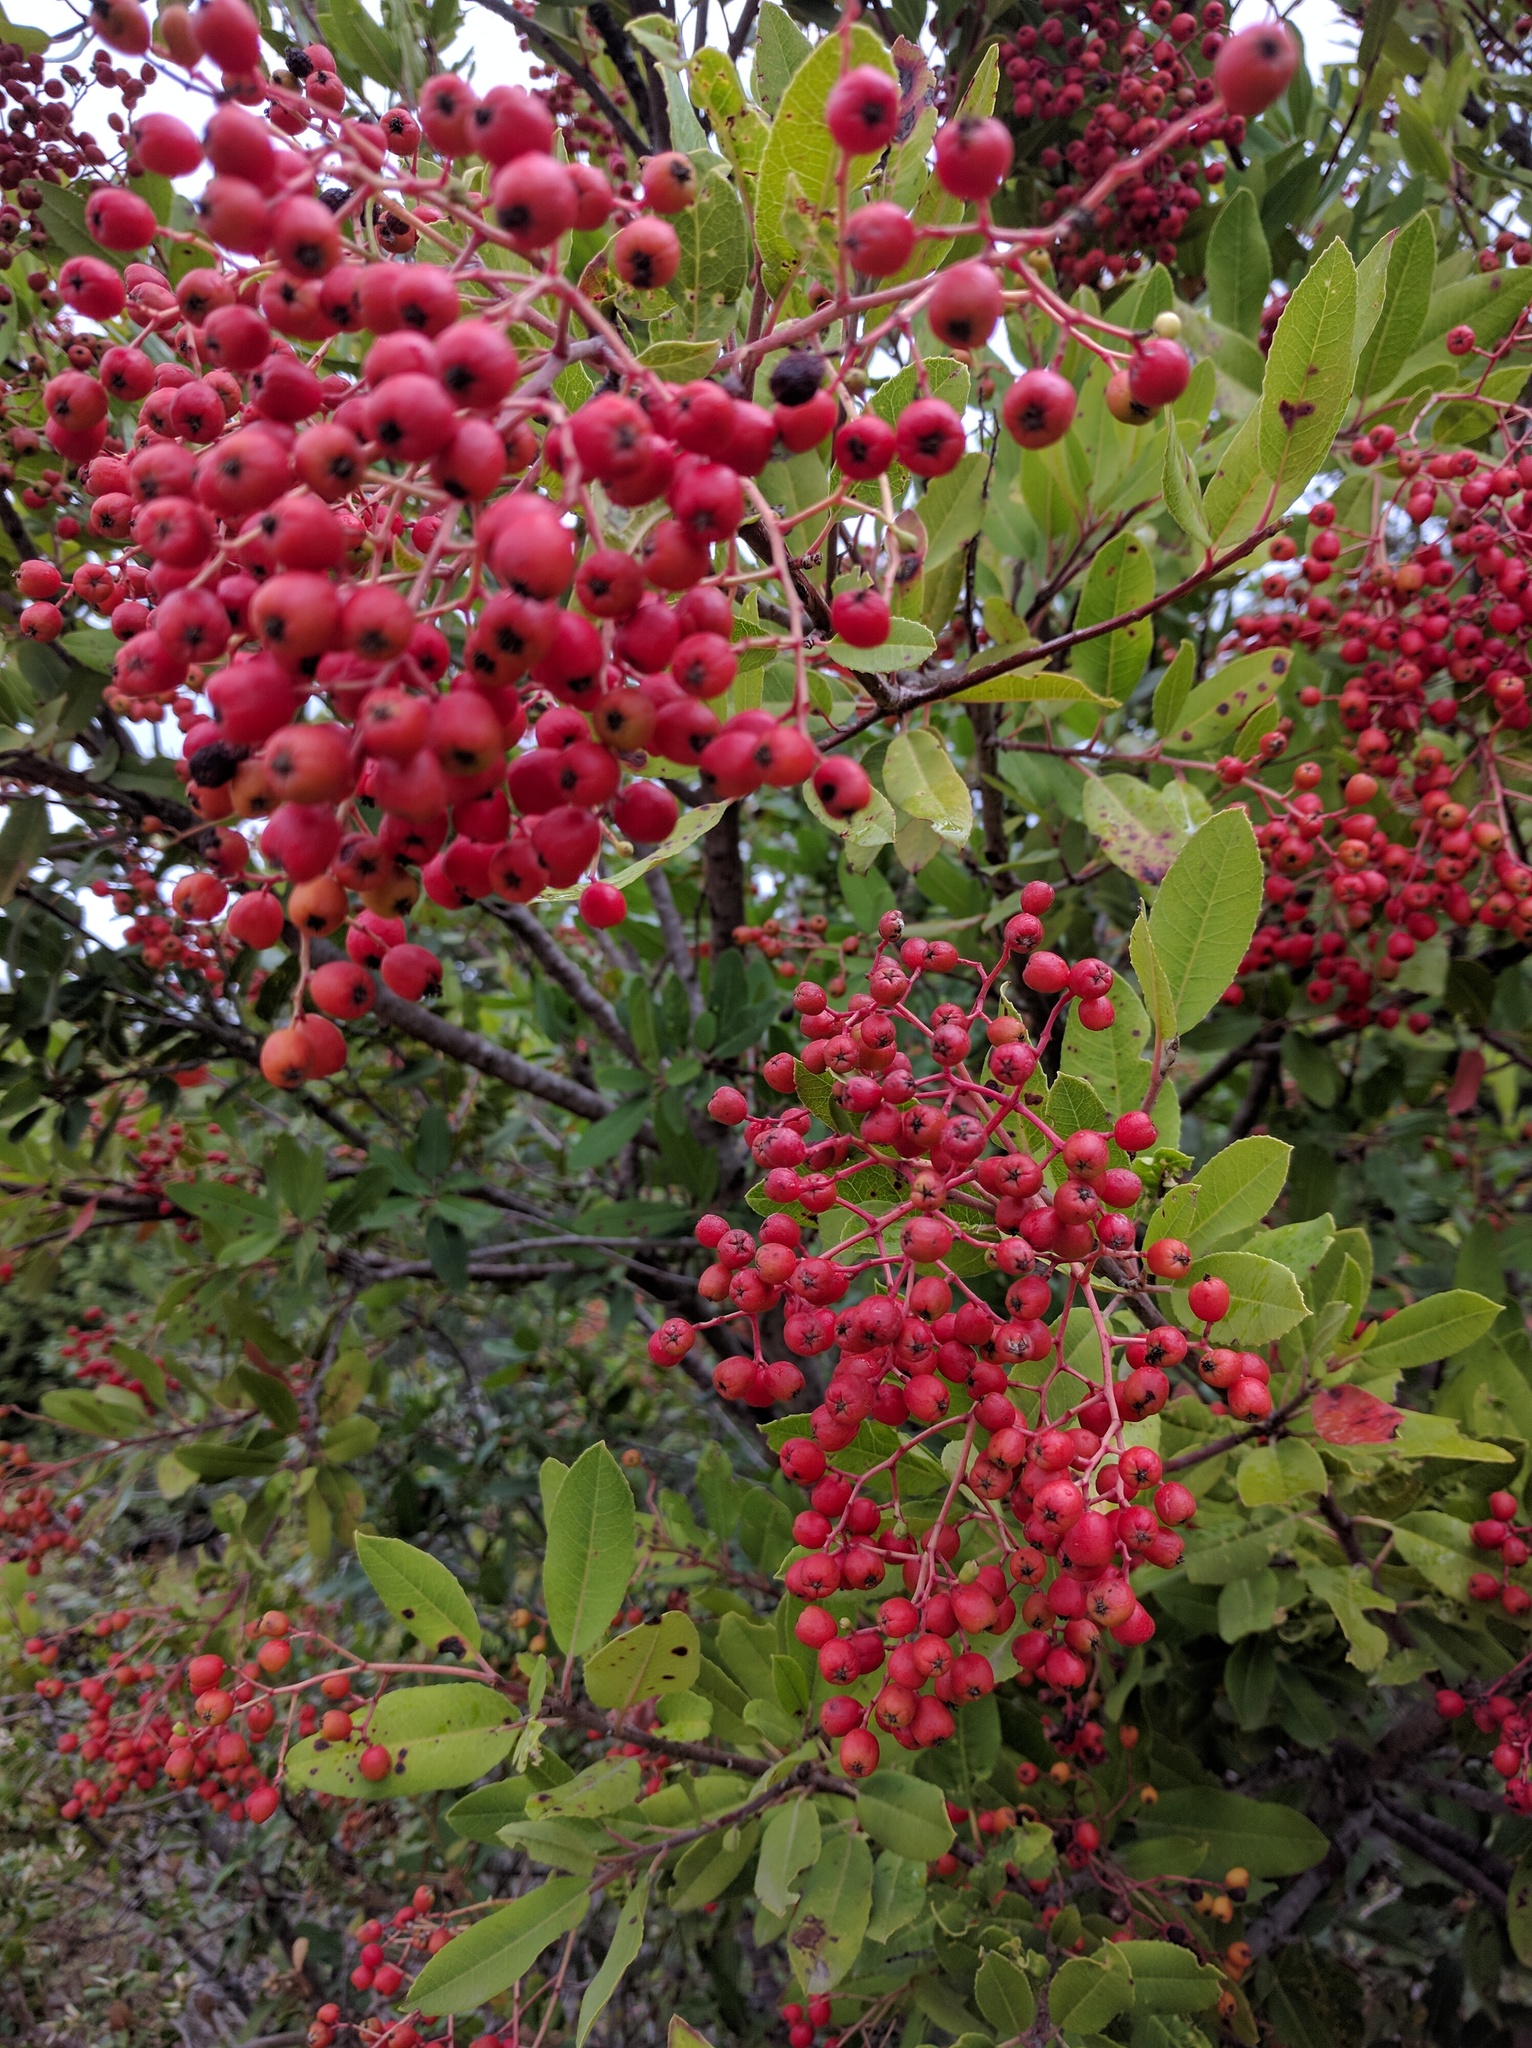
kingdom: Plantae
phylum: Tracheophyta
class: Magnoliopsida
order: Rosales
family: Rosaceae
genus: Heteromeles
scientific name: Heteromeles arbutifolia
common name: California-holly
